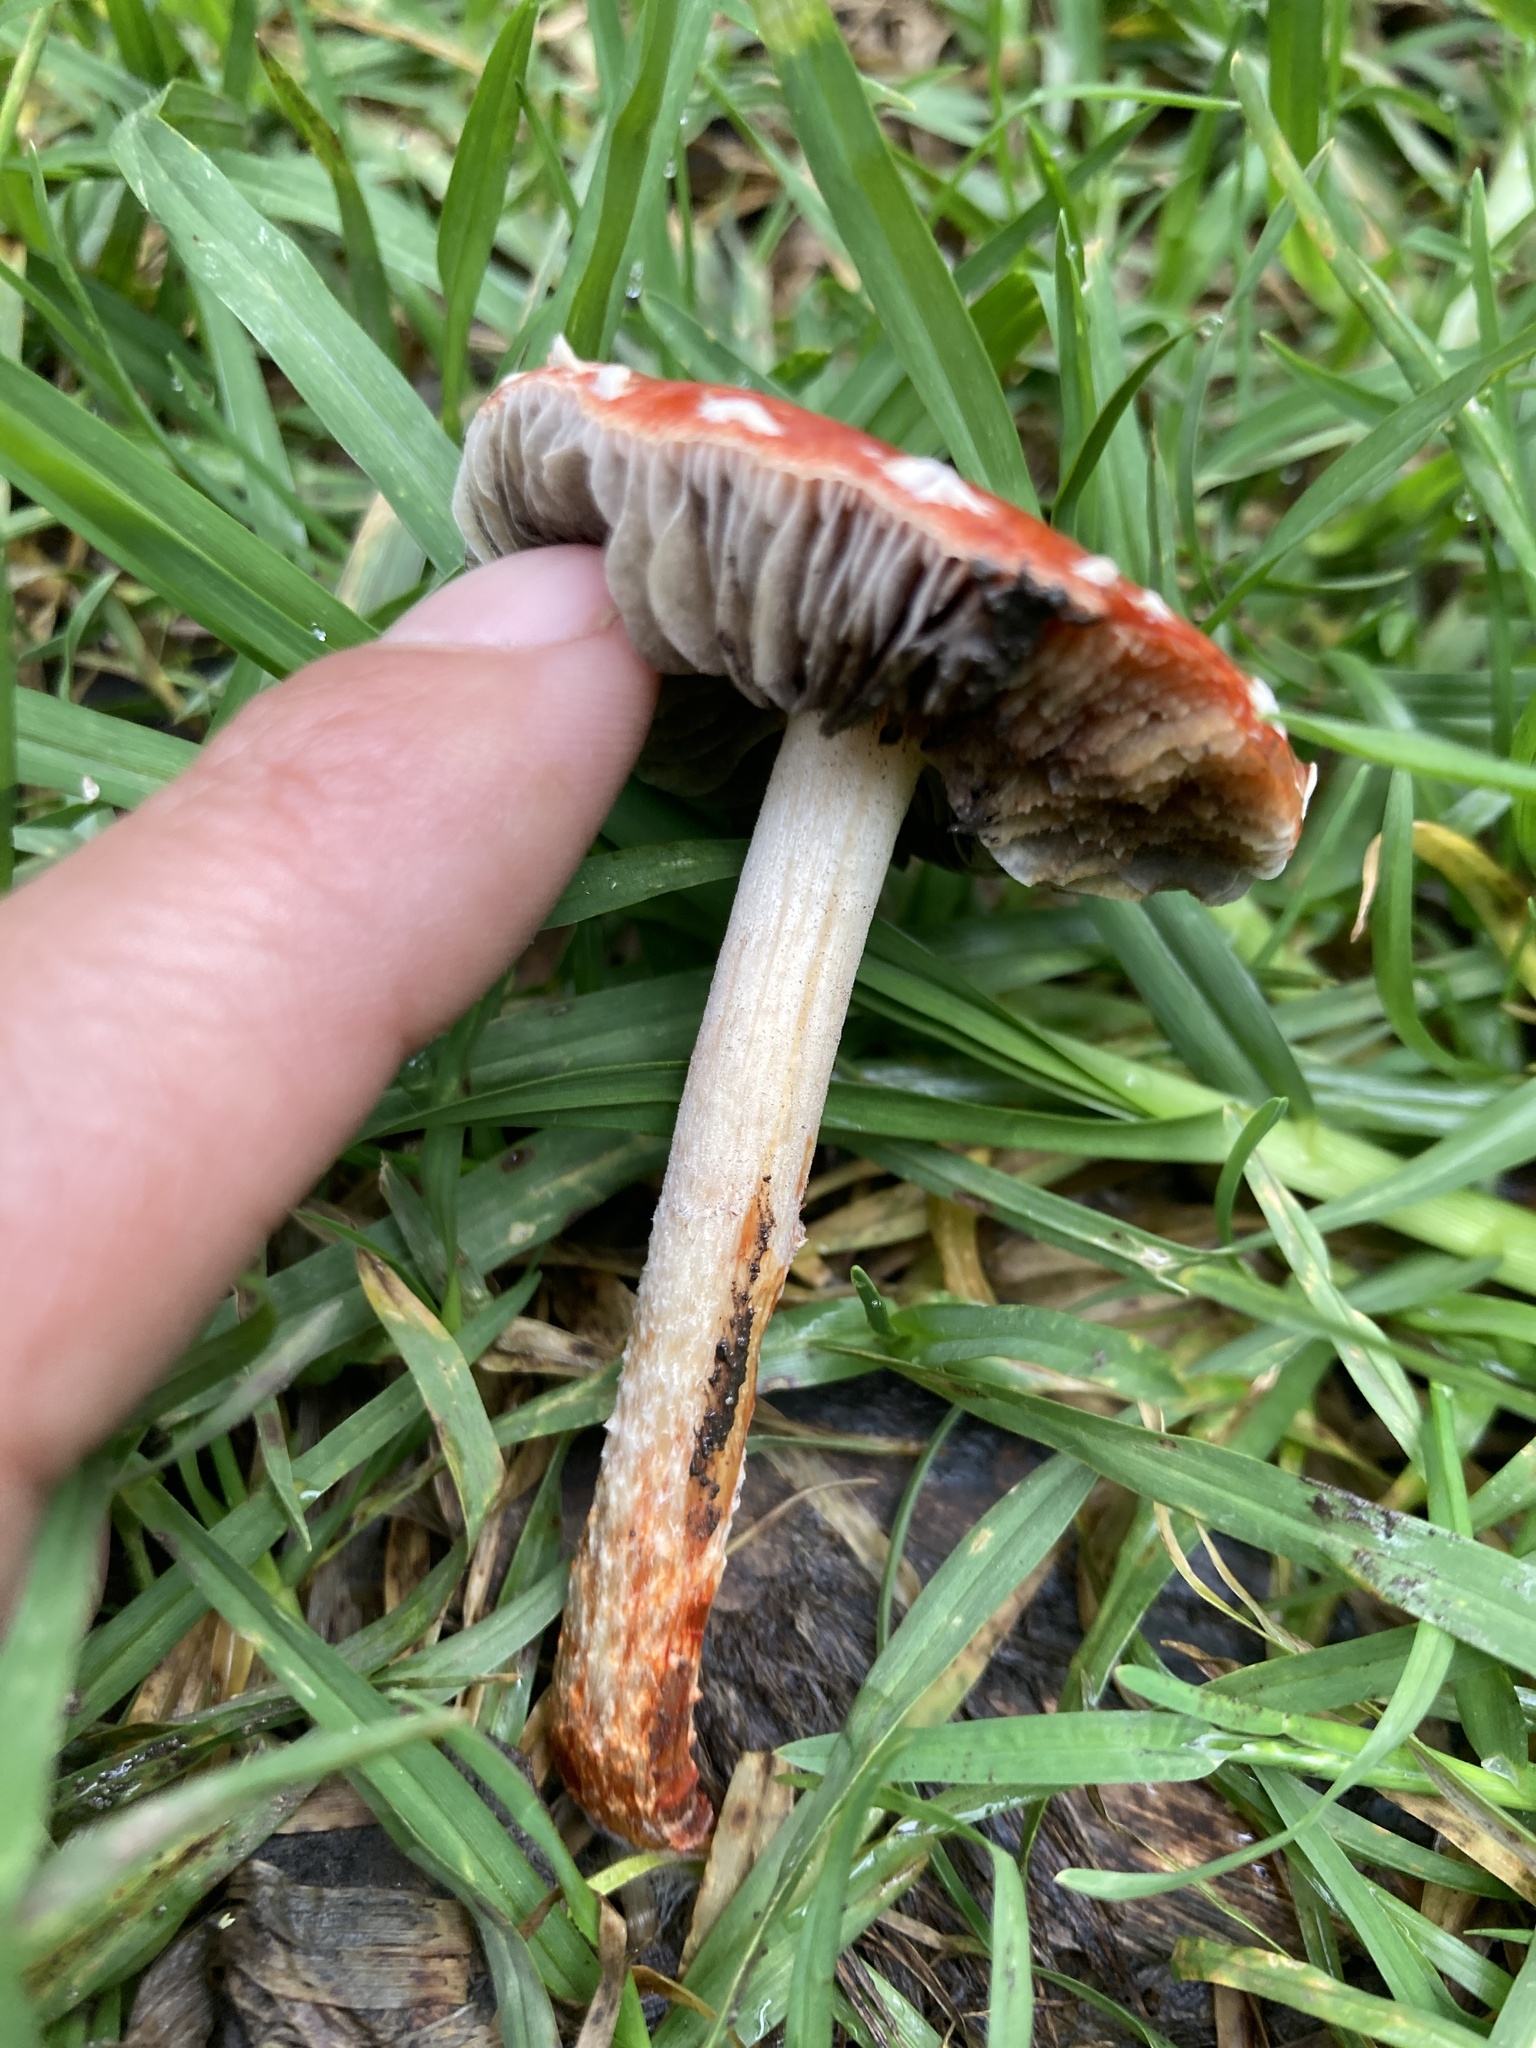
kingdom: Fungi
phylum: Basidiomycota
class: Agaricomycetes
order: Agaricales
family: Strophariaceae
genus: Leratiomyces
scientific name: Leratiomyces ceres
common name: Redlead roundhead
